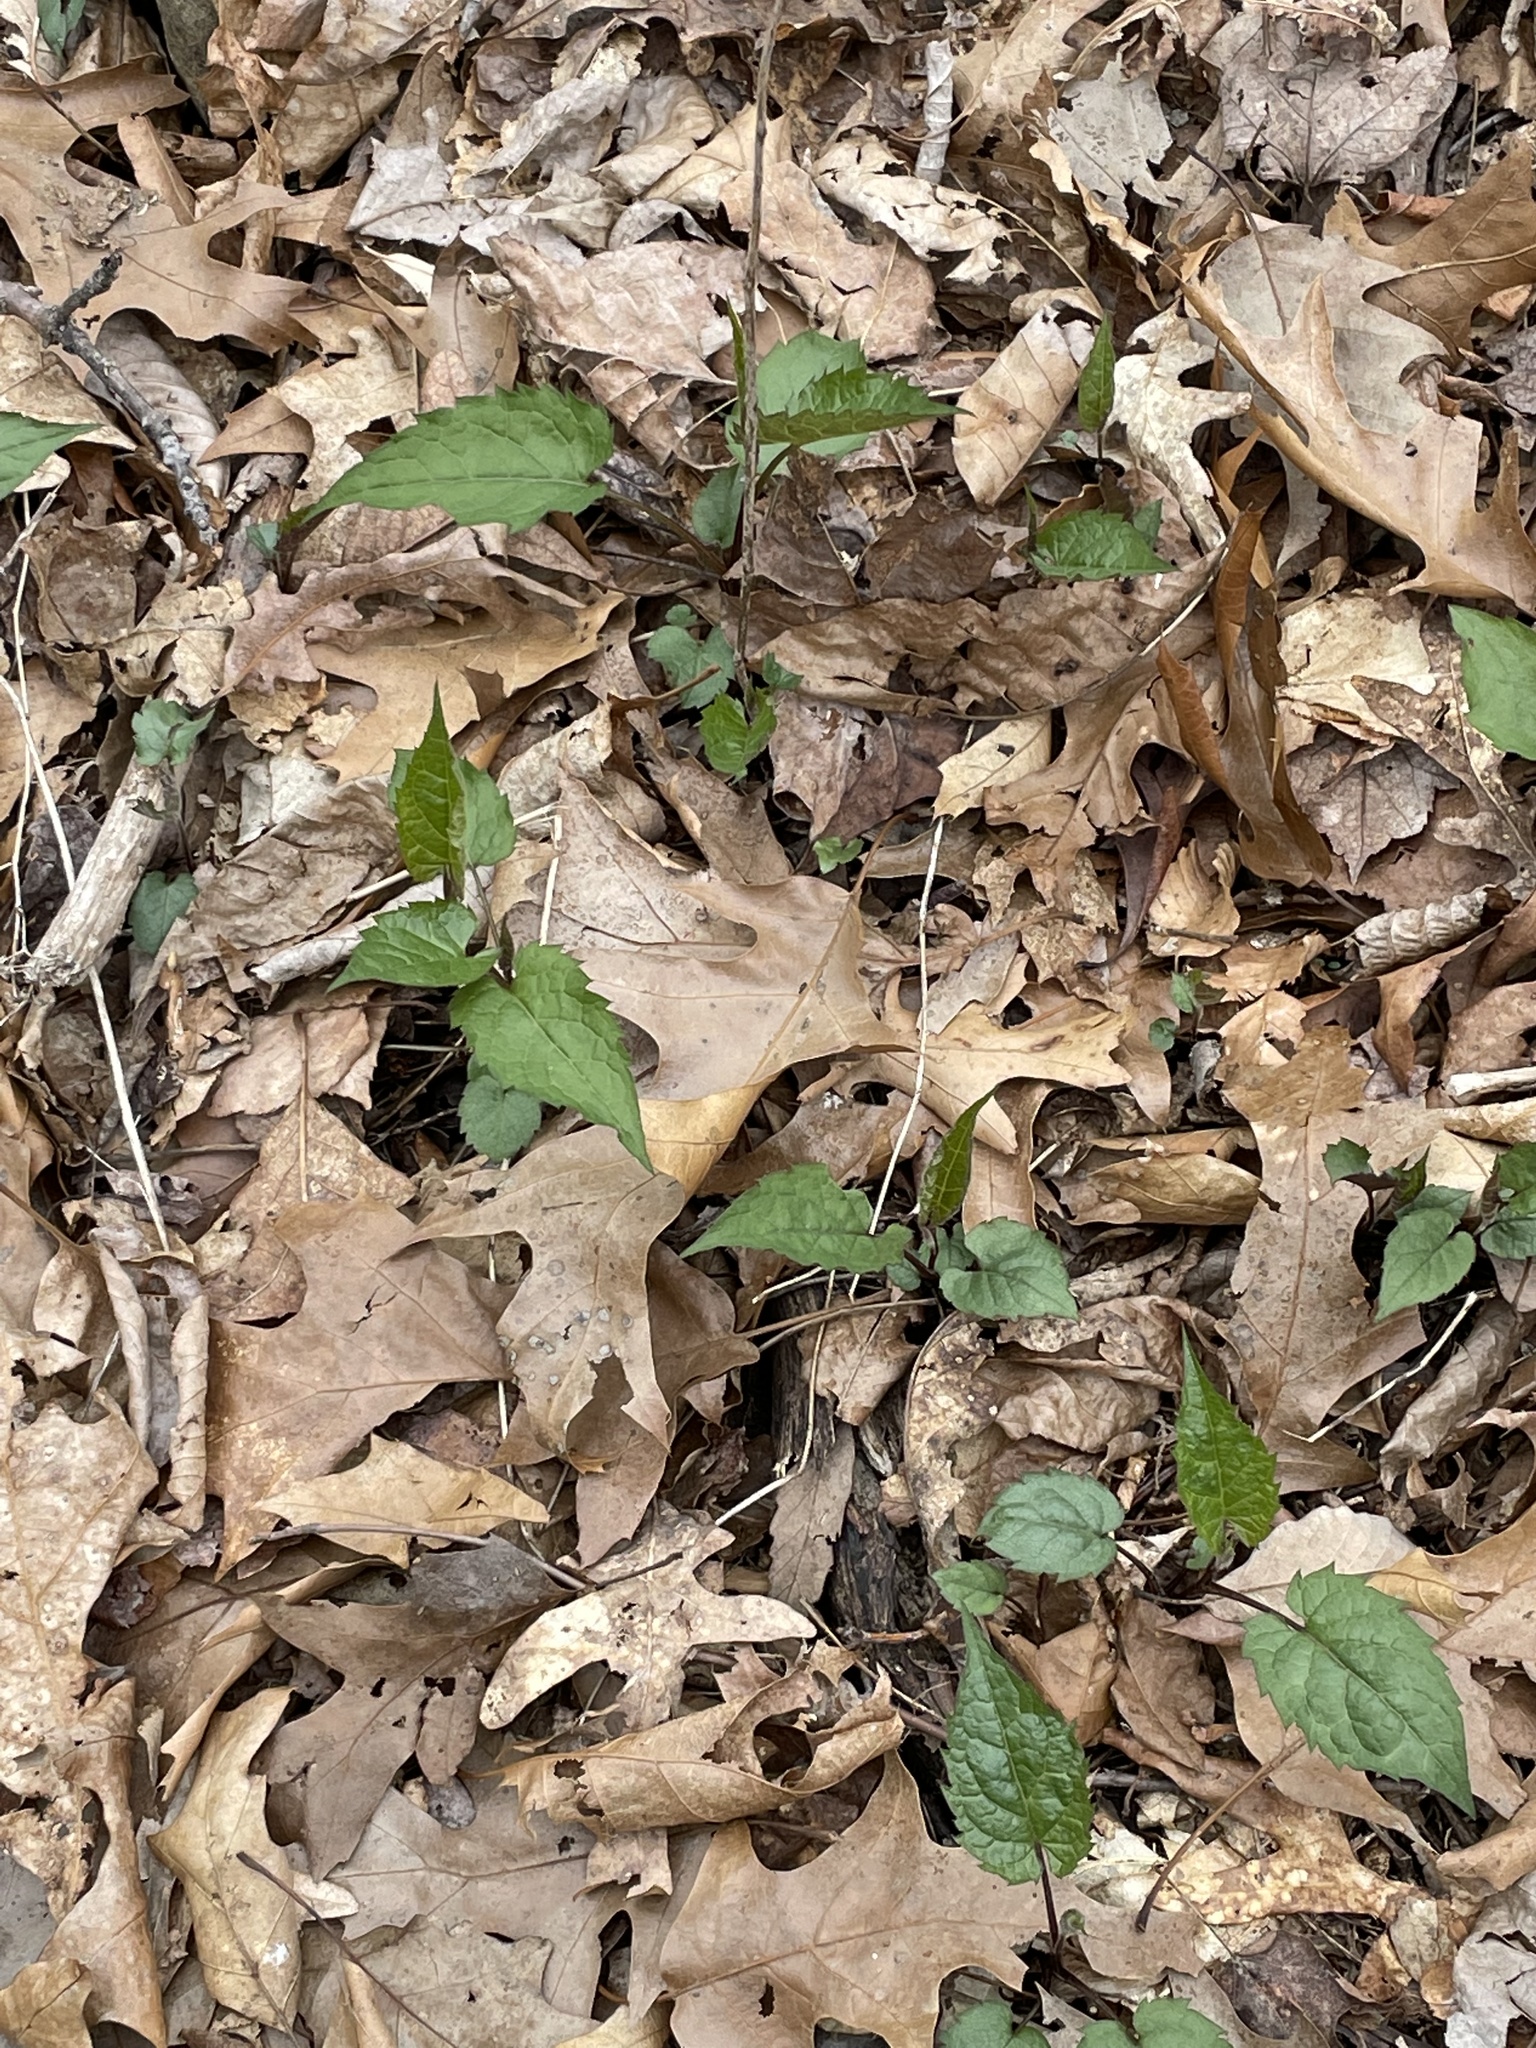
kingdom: Plantae
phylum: Tracheophyta
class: Magnoliopsida
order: Asterales
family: Asteraceae
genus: Eurybia
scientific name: Eurybia divaricata
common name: White wood aster
